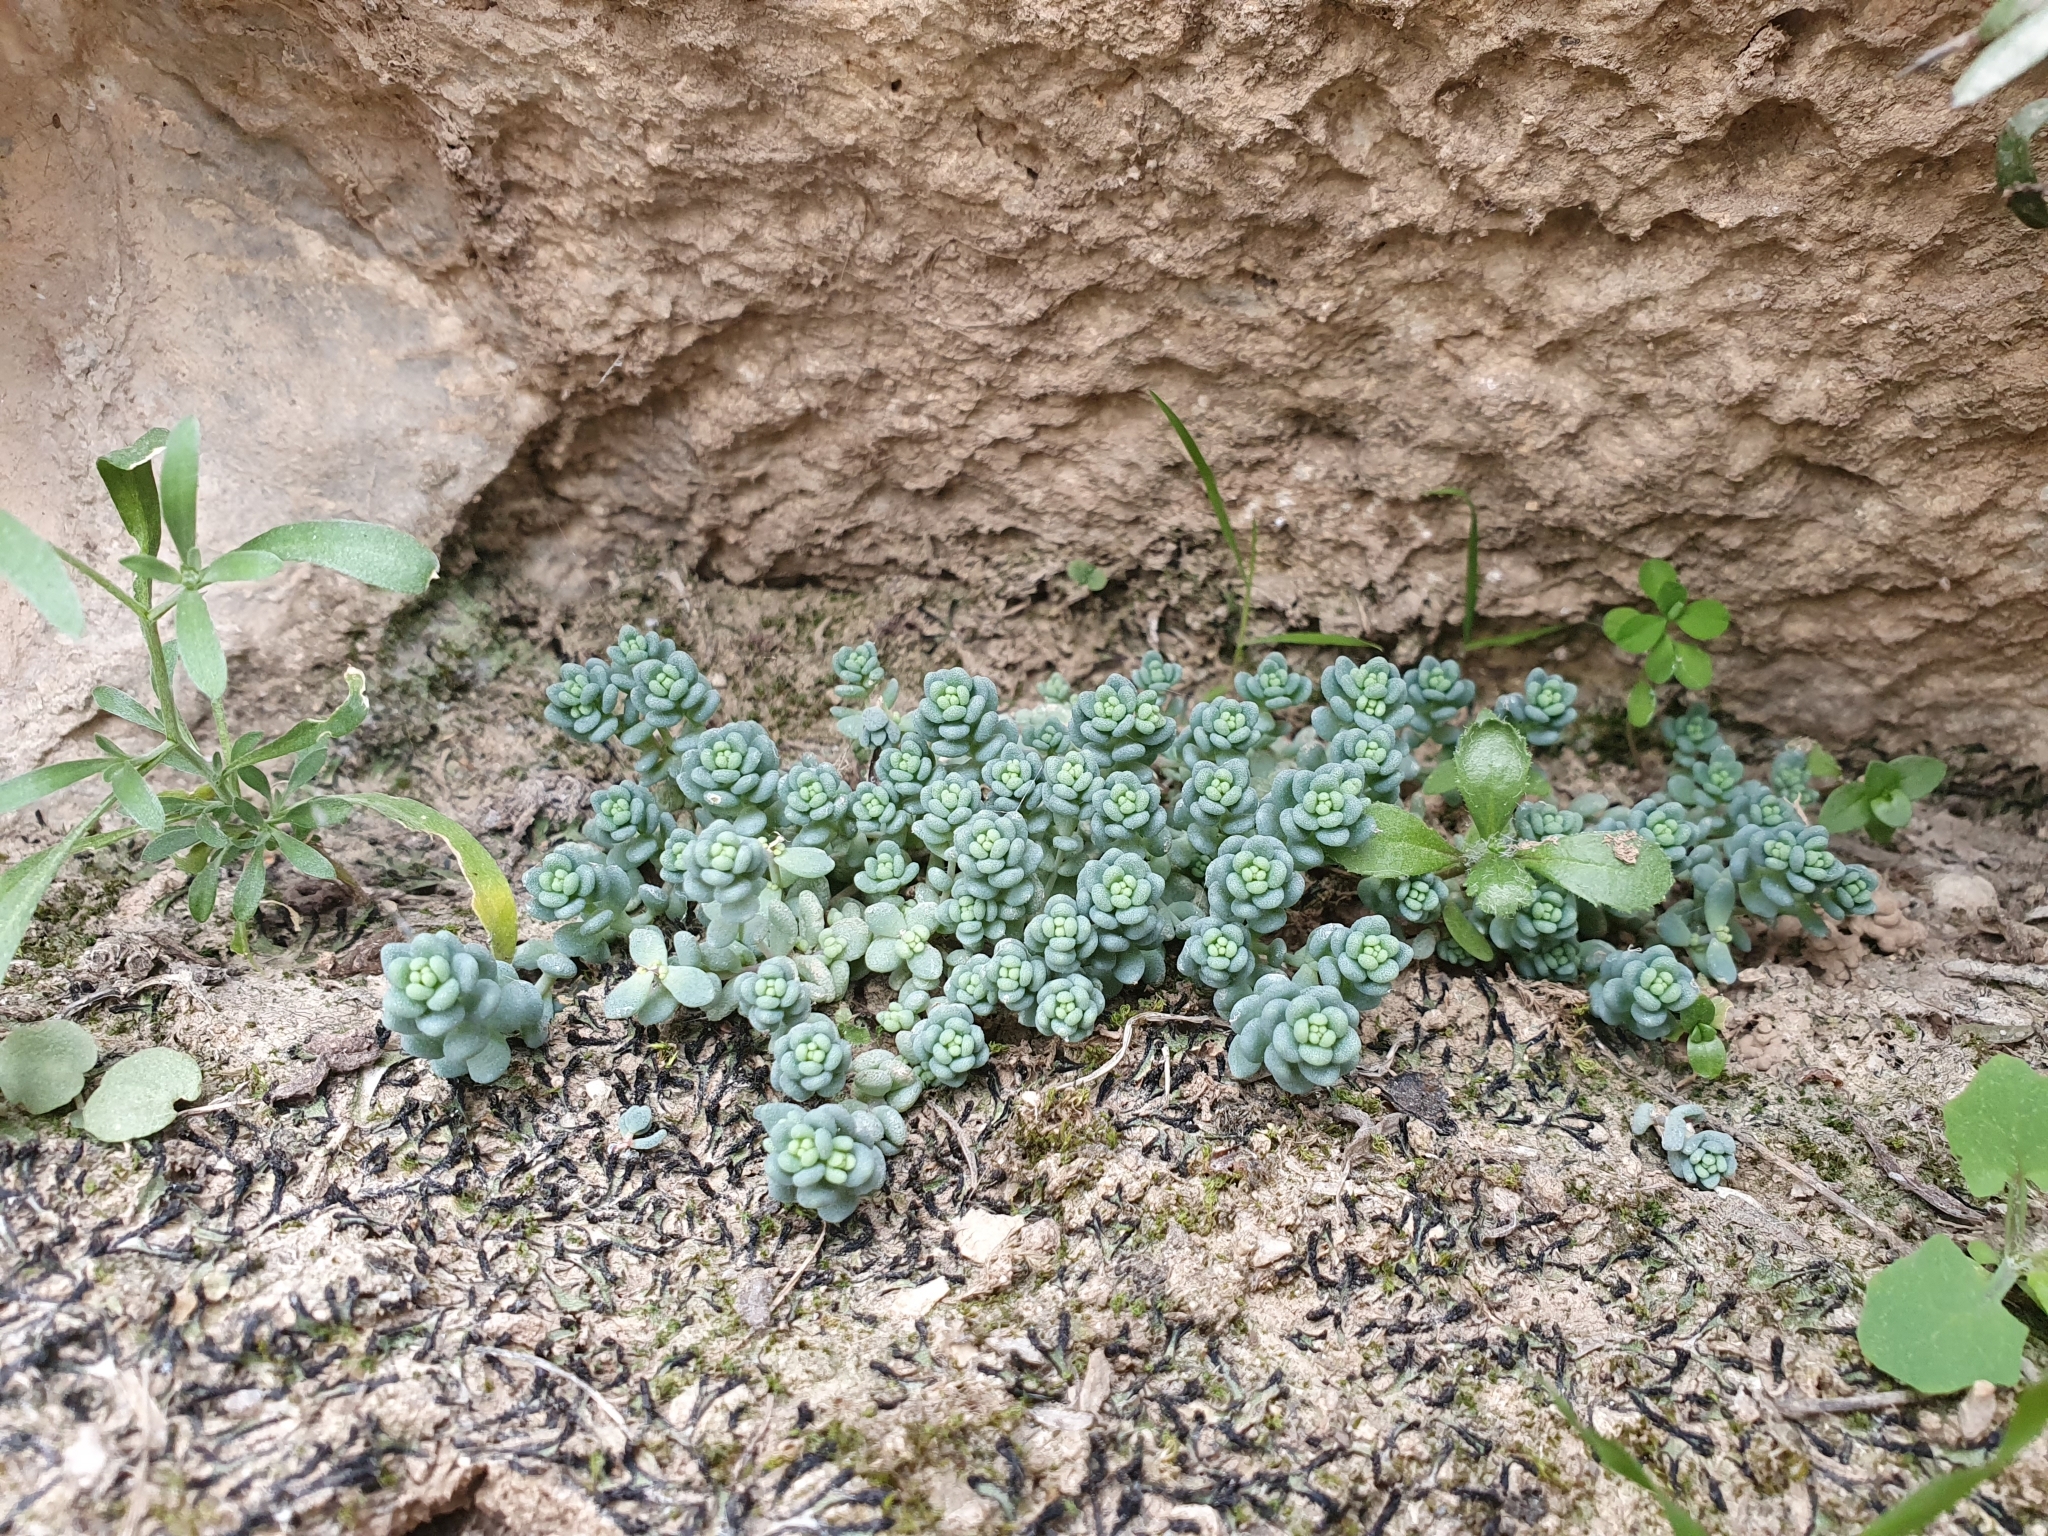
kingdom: Plantae
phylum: Tracheophyta
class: Magnoliopsida
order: Saxifragales
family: Crassulaceae
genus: Sedum
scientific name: Sedum dasyphyllum
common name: Thick-leaf stonecrop
